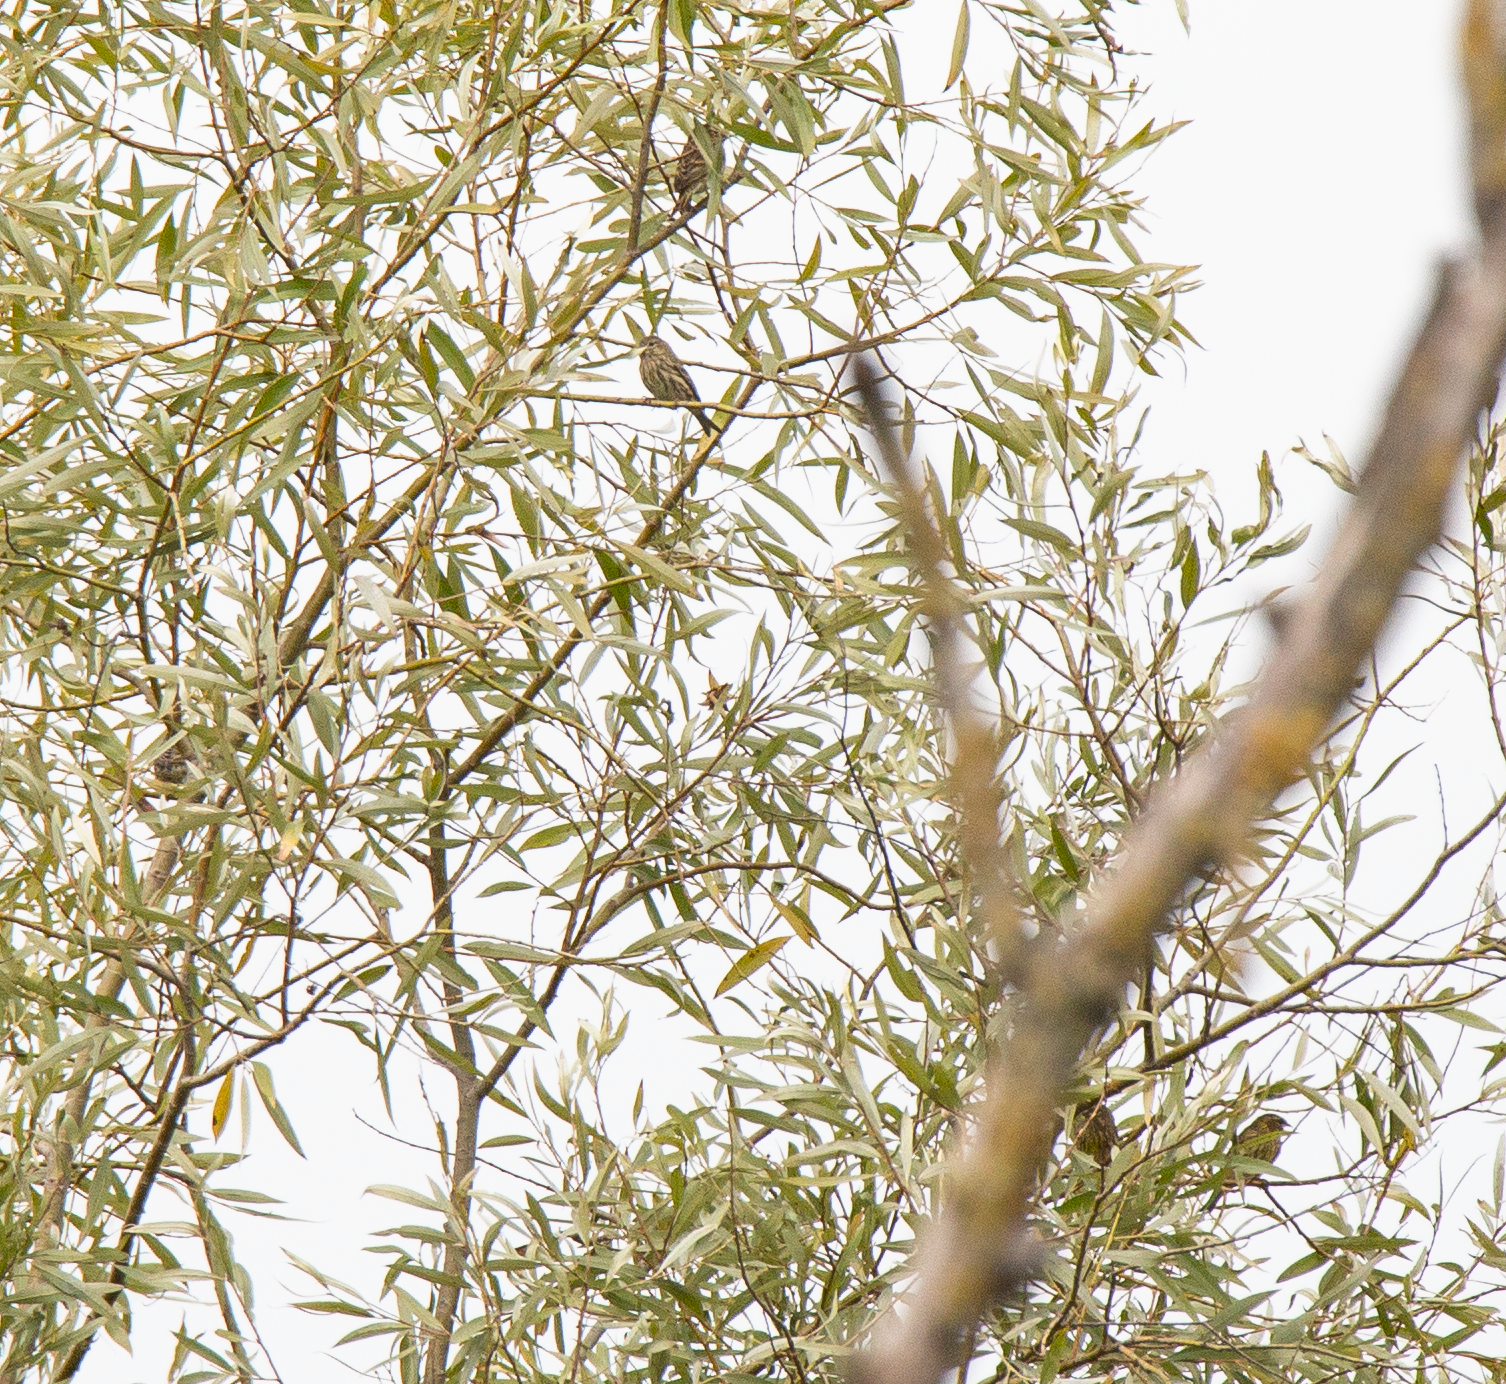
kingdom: Animalia
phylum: Chordata
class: Aves
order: Passeriformes
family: Fringillidae
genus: Serinus
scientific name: Serinus serinus
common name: European serin
